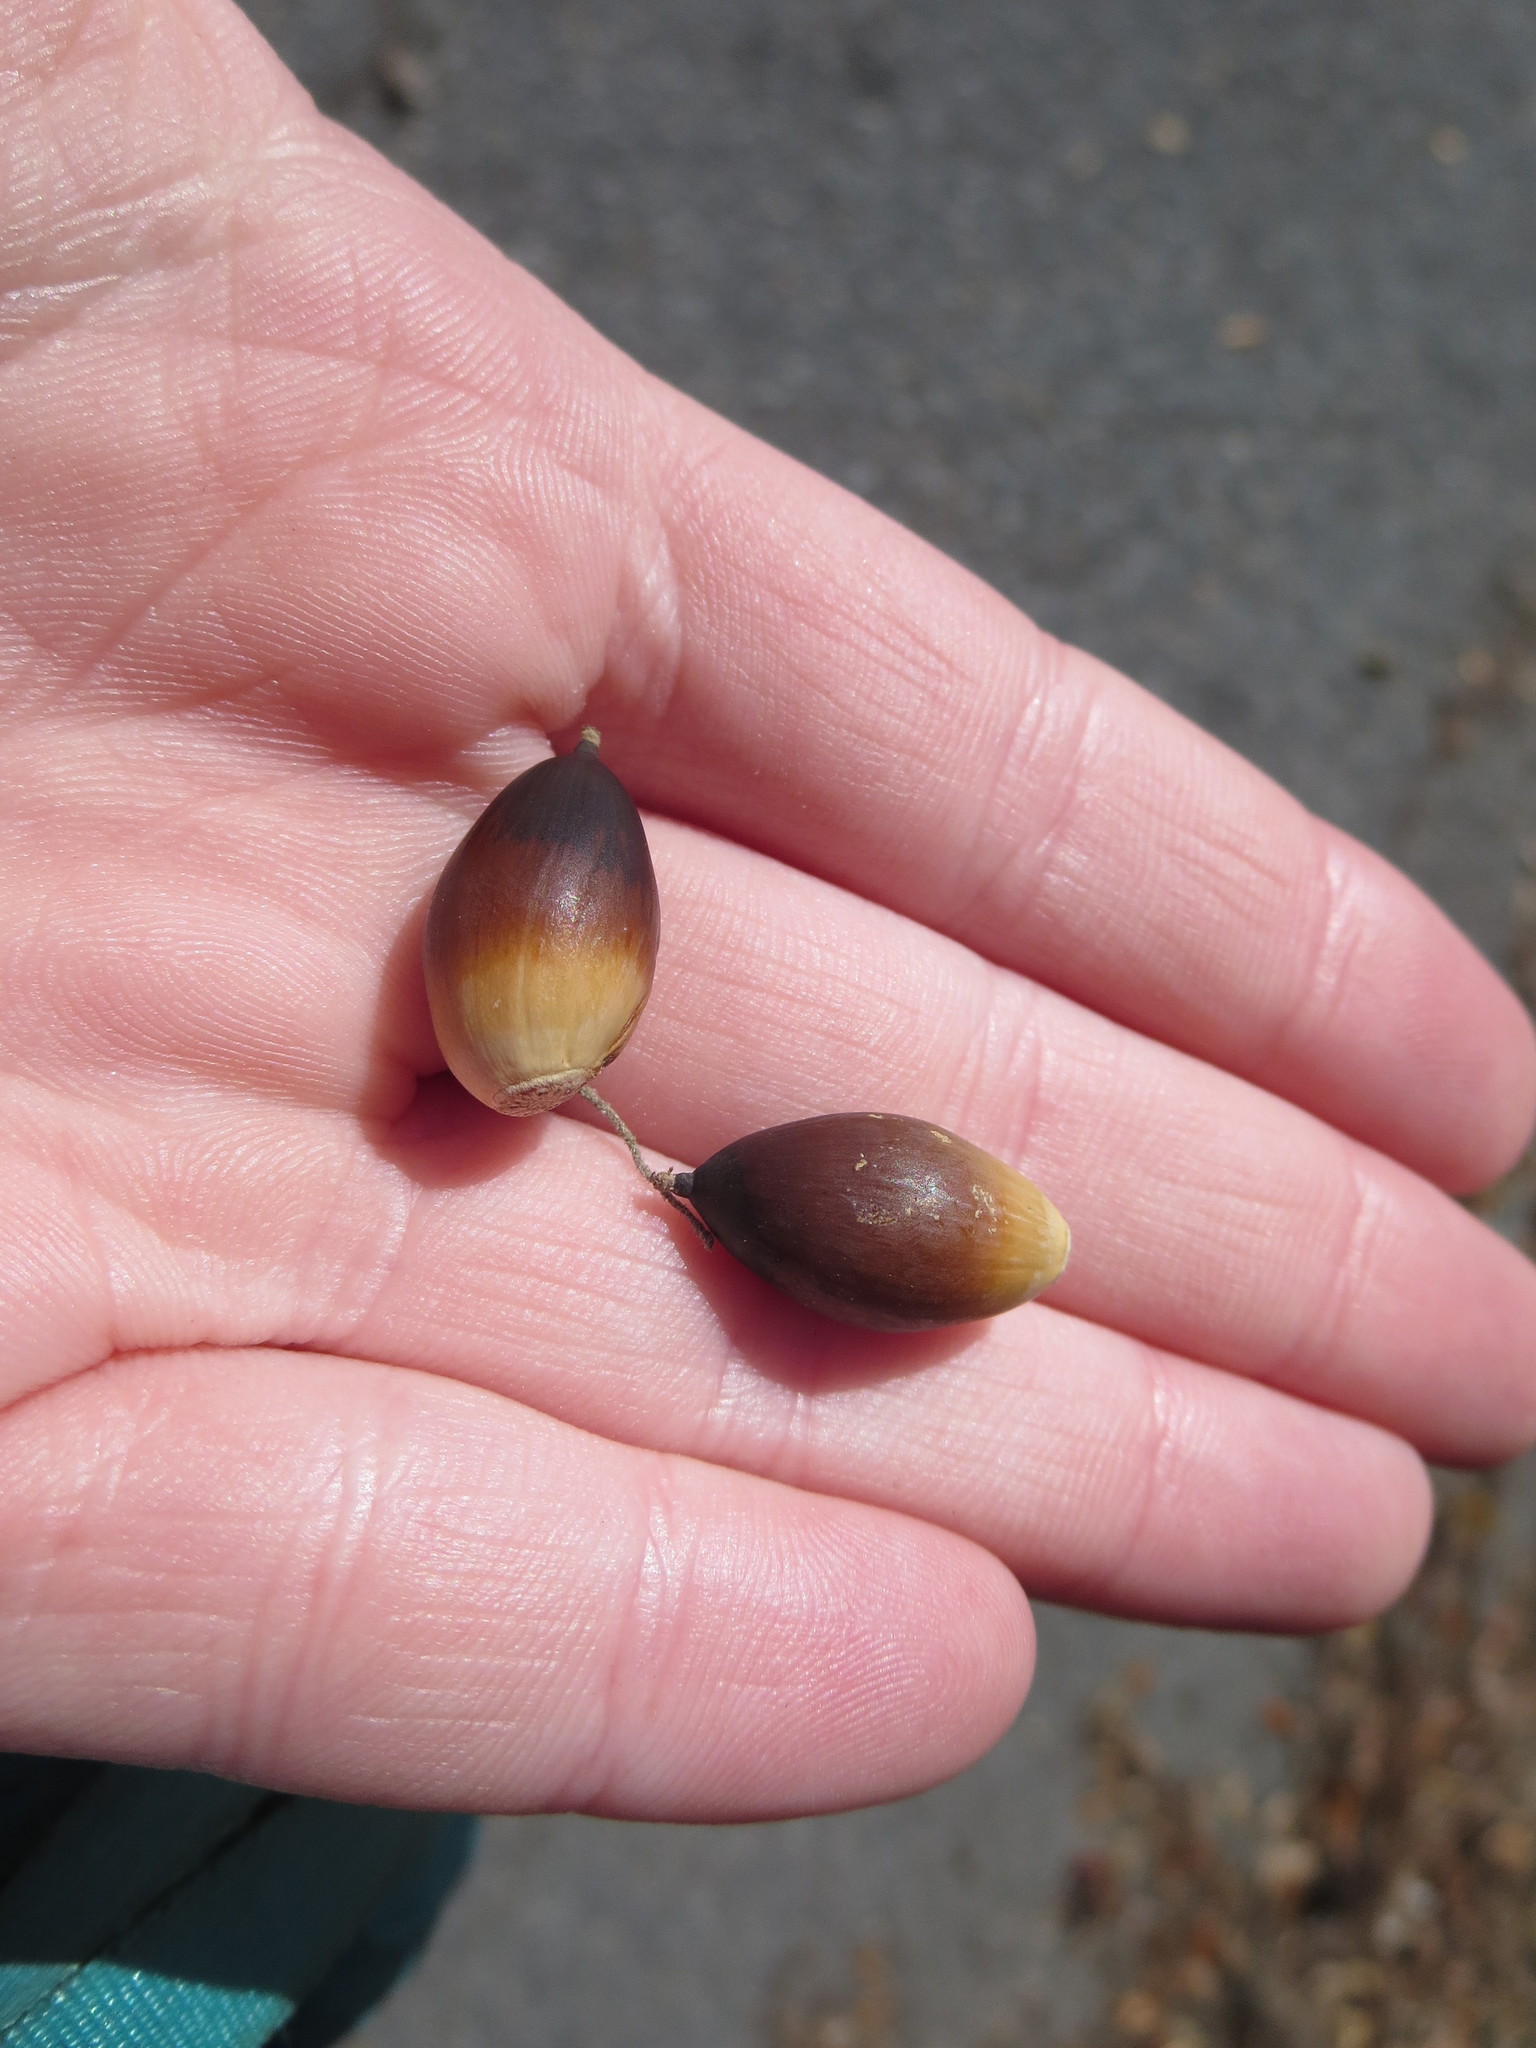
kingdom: Plantae
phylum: Tracheophyta
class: Magnoliopsida
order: Fagales
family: Fagaceae
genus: Quercus
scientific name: Quercus virginiana
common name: Southern live oak
